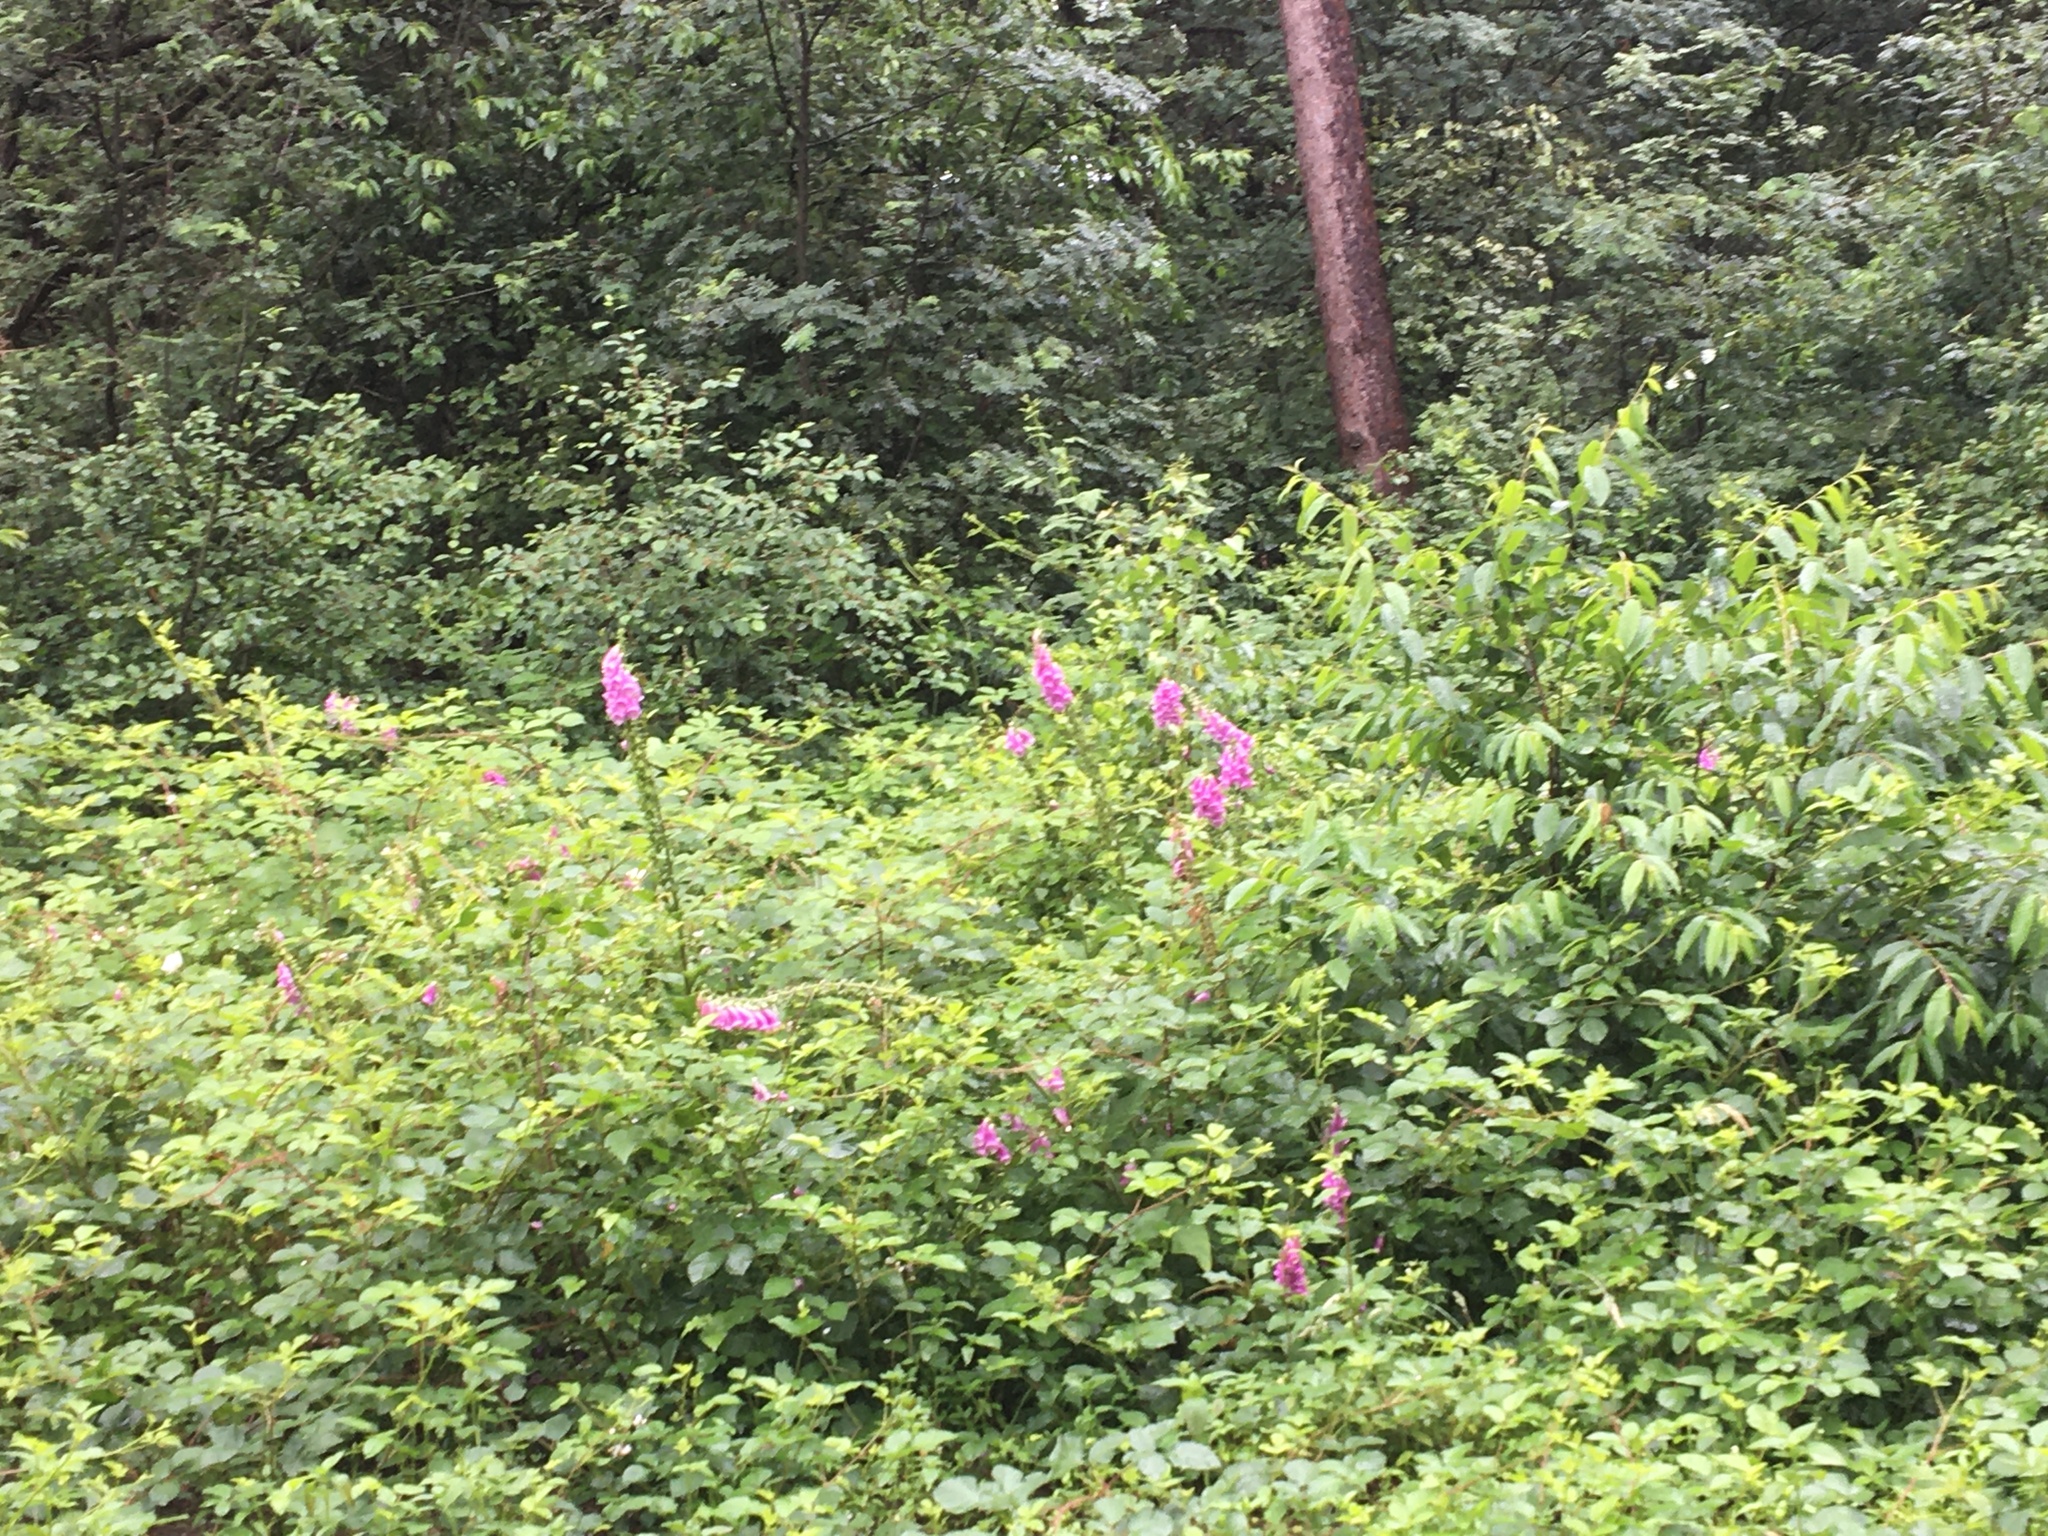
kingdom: Plantae
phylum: Tracheophyta
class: Magnoliopsida
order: Lamiales
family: Plantaginaceae
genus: Digitalis
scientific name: Digitalis purpurea
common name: Foxglove
